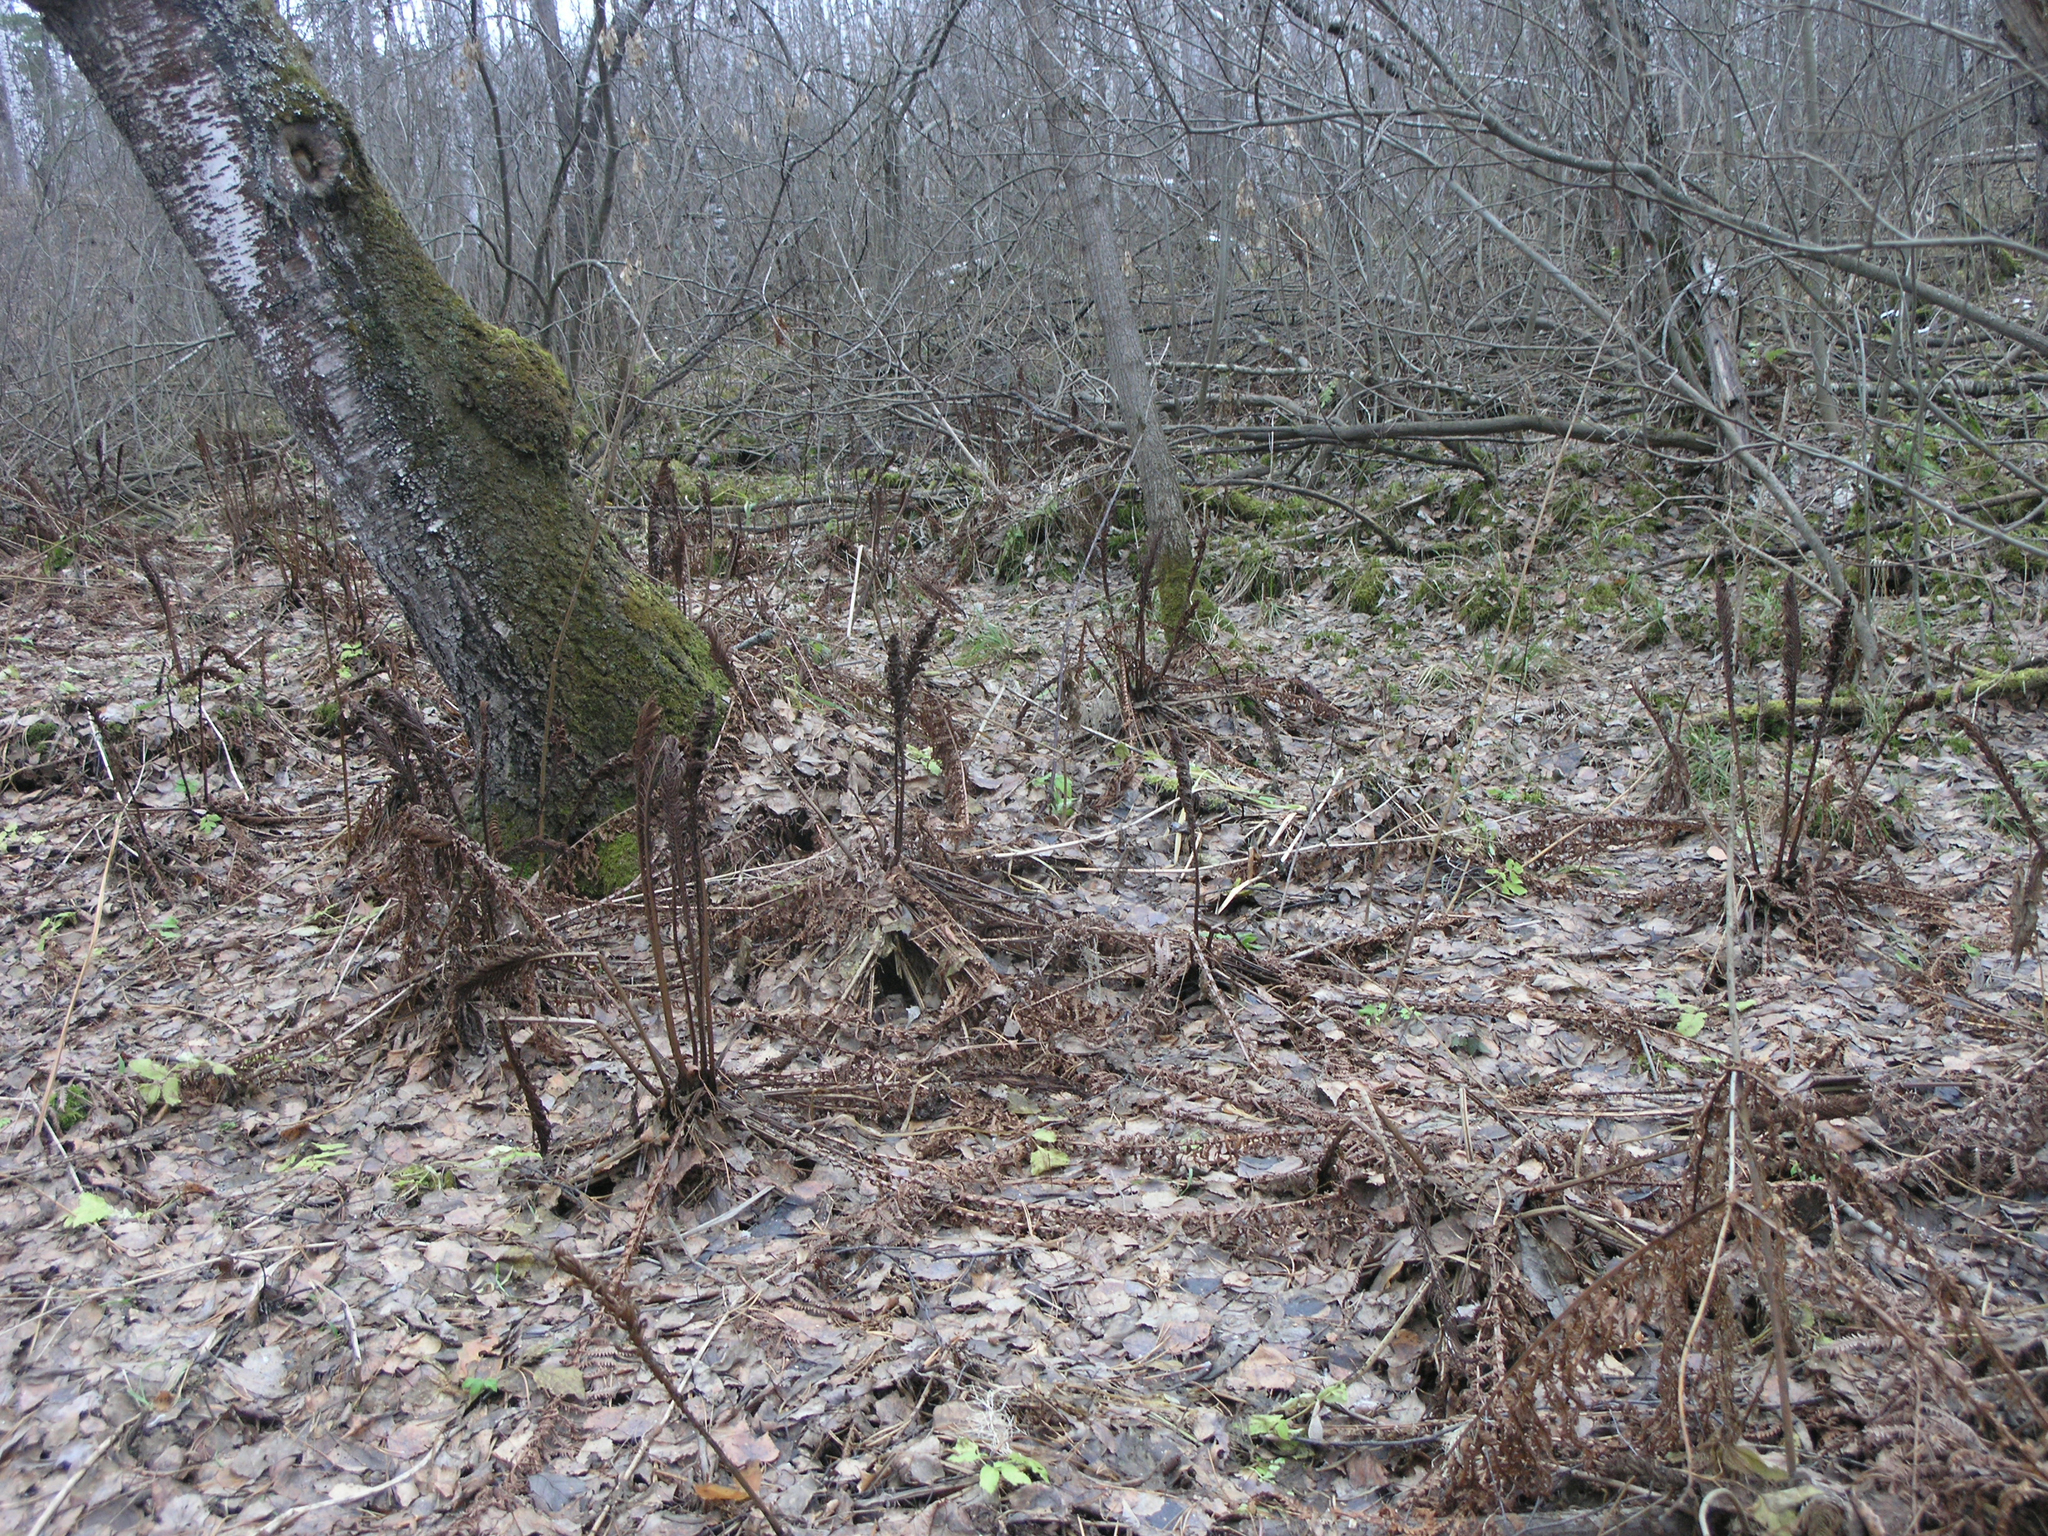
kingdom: Plantae
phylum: Tracheophyta
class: Polypodiopsida
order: Polypodiales
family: Onocleaceae
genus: Matteuccia
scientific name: Matteuccia struthiopteris
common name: Ostrich fern
